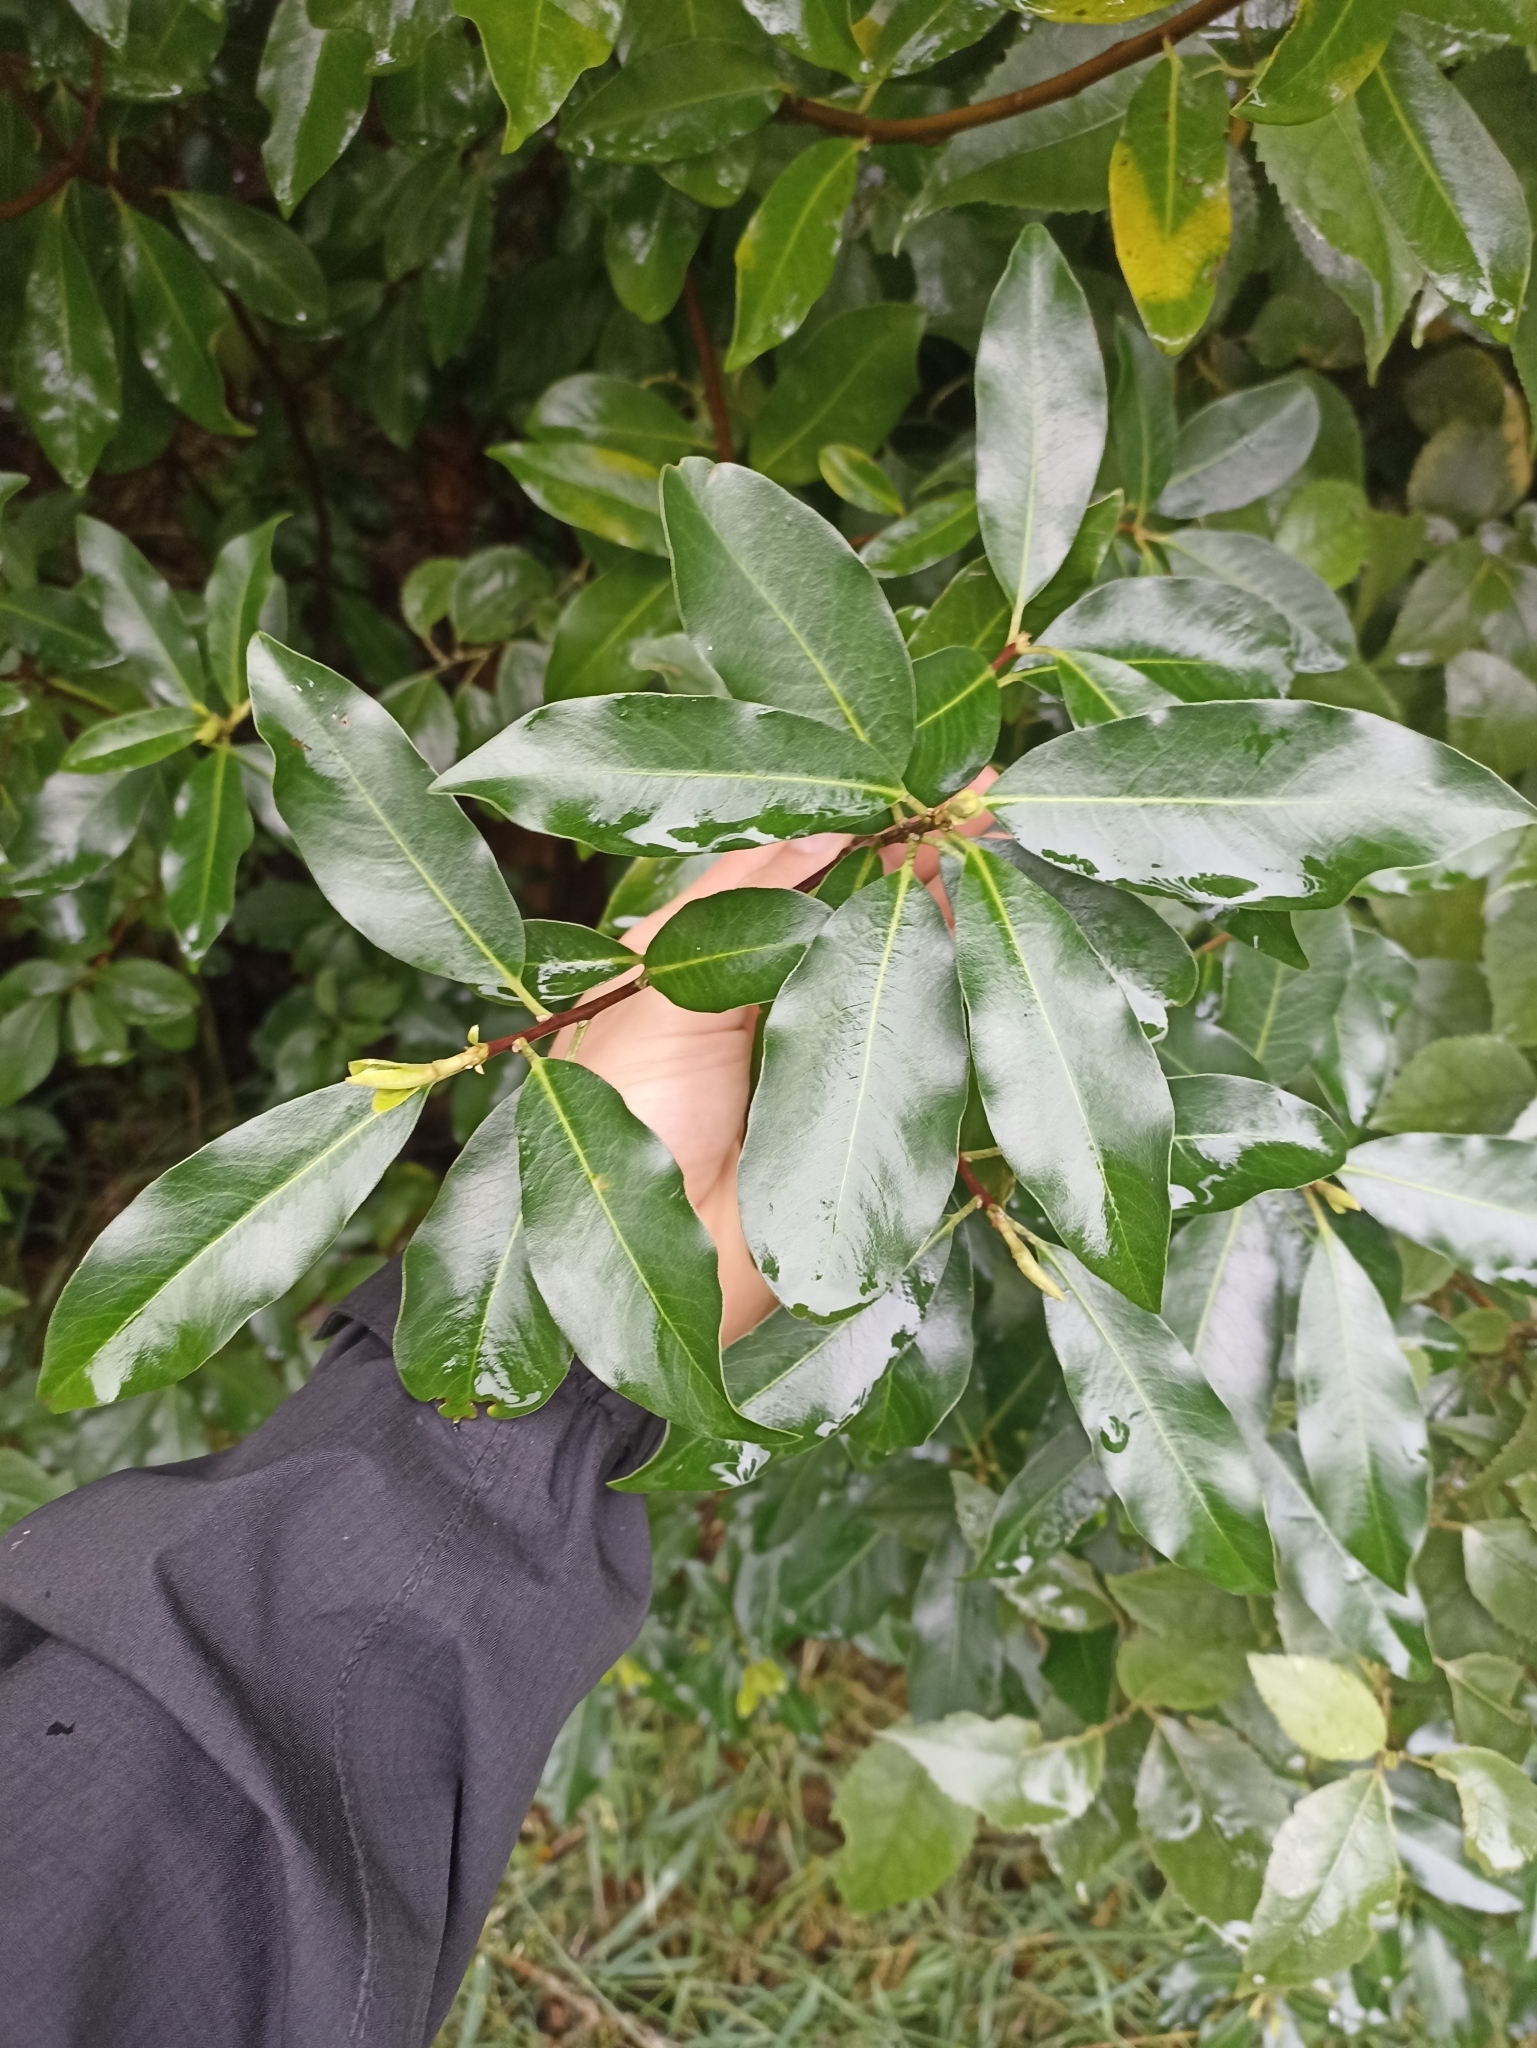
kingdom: Plantae
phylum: Tracheophyta
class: Magnoliopsida
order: Apiales
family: Pittosporaceae
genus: Pittosporum
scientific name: Pittosporum colensoi
